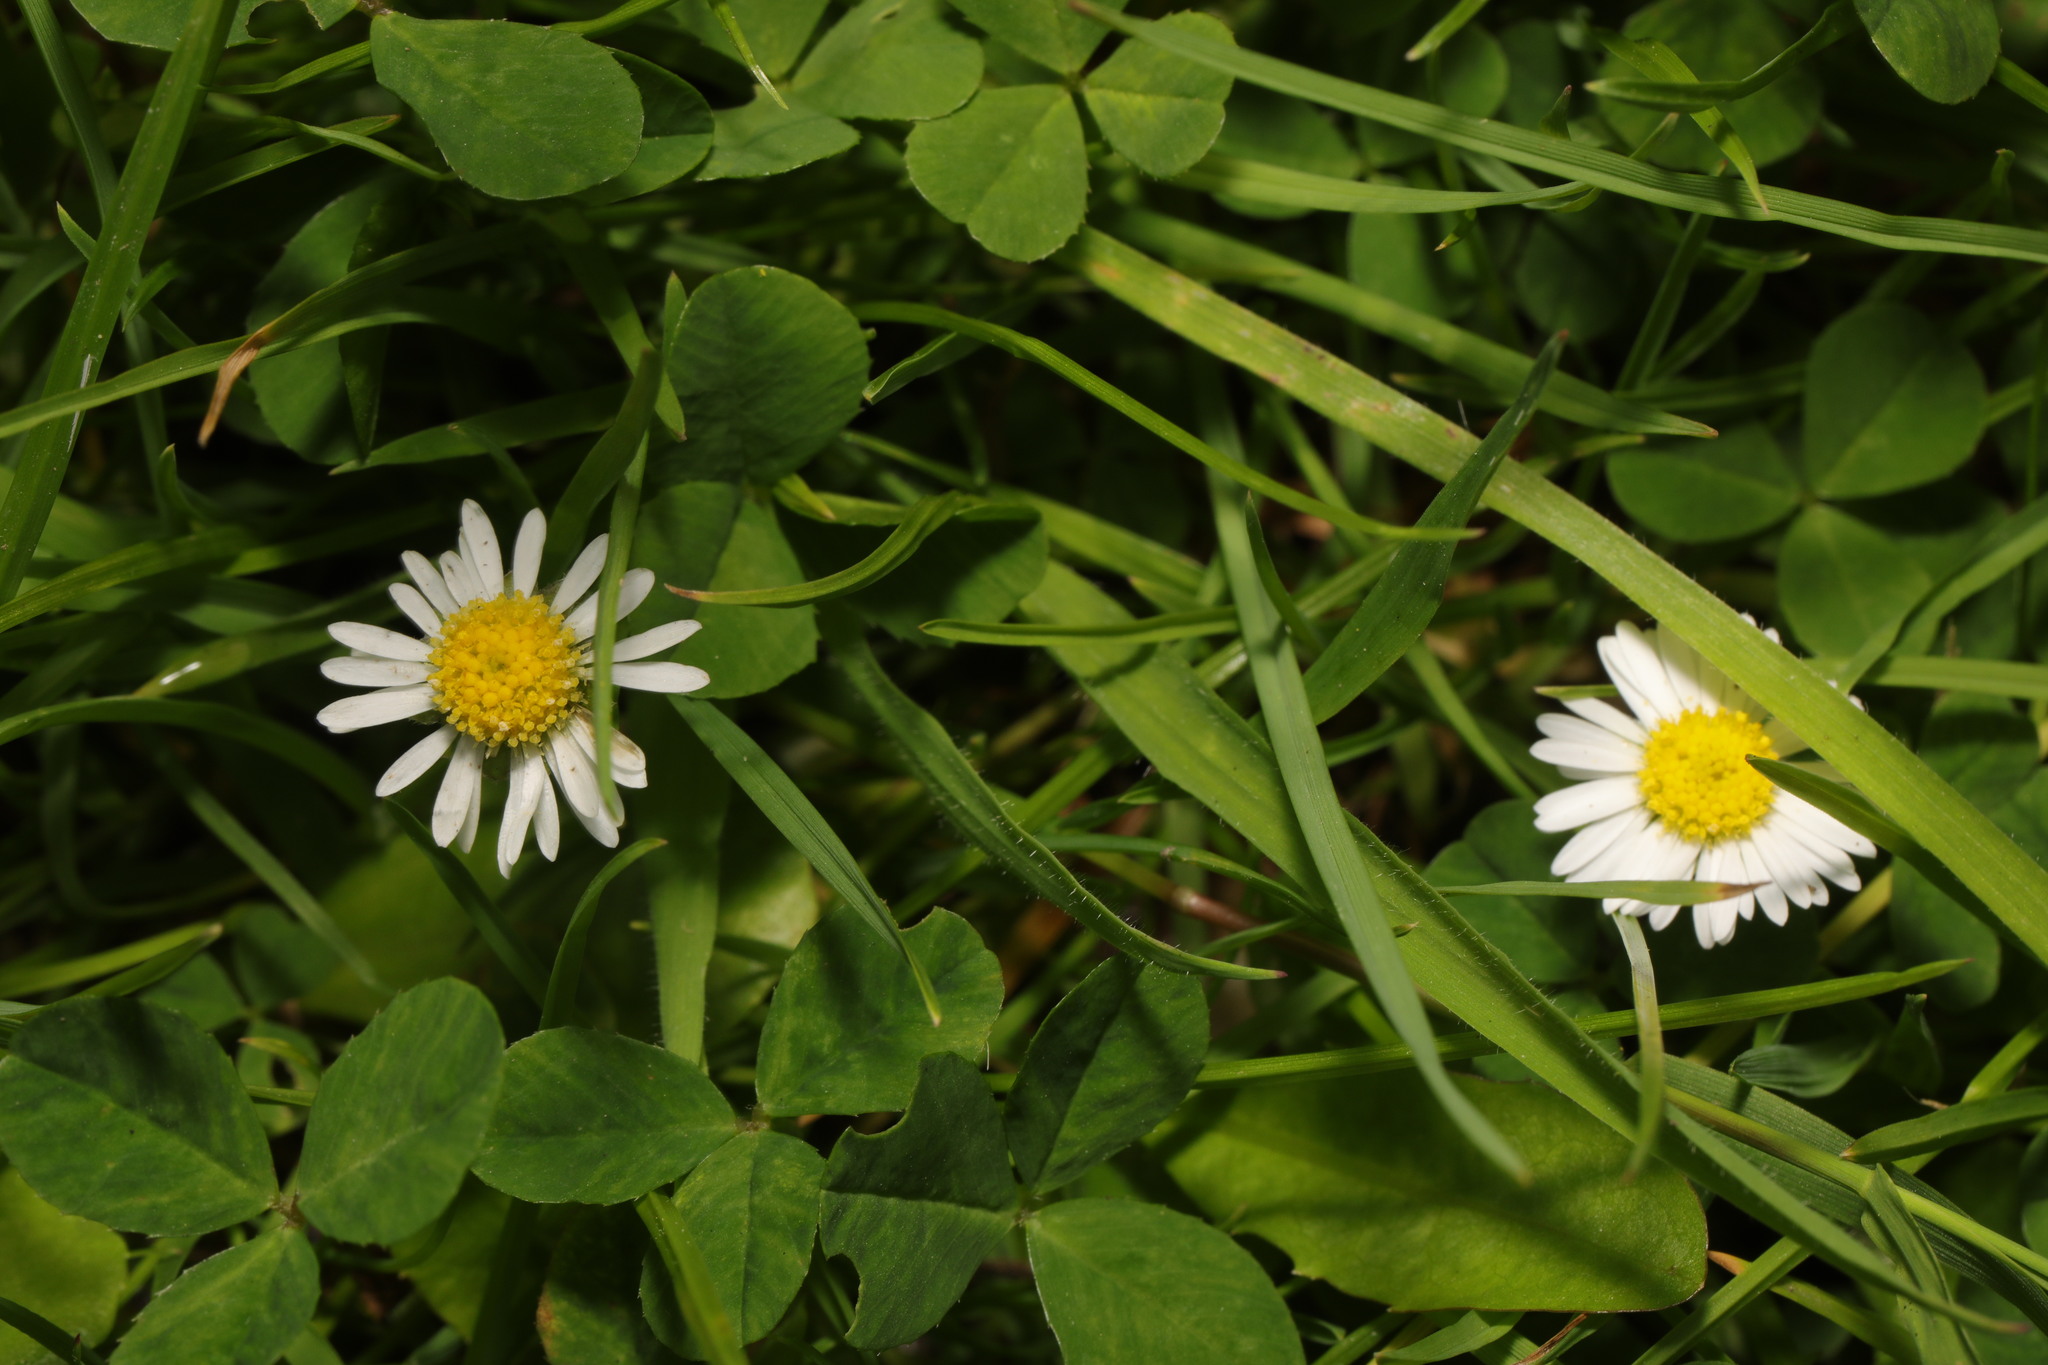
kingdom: Plantae
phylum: Tracheophyta
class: Magnoliopsida
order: Asterales
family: Asteraceae
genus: Bellis
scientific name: Bellis perennis
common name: Lawndaisy
